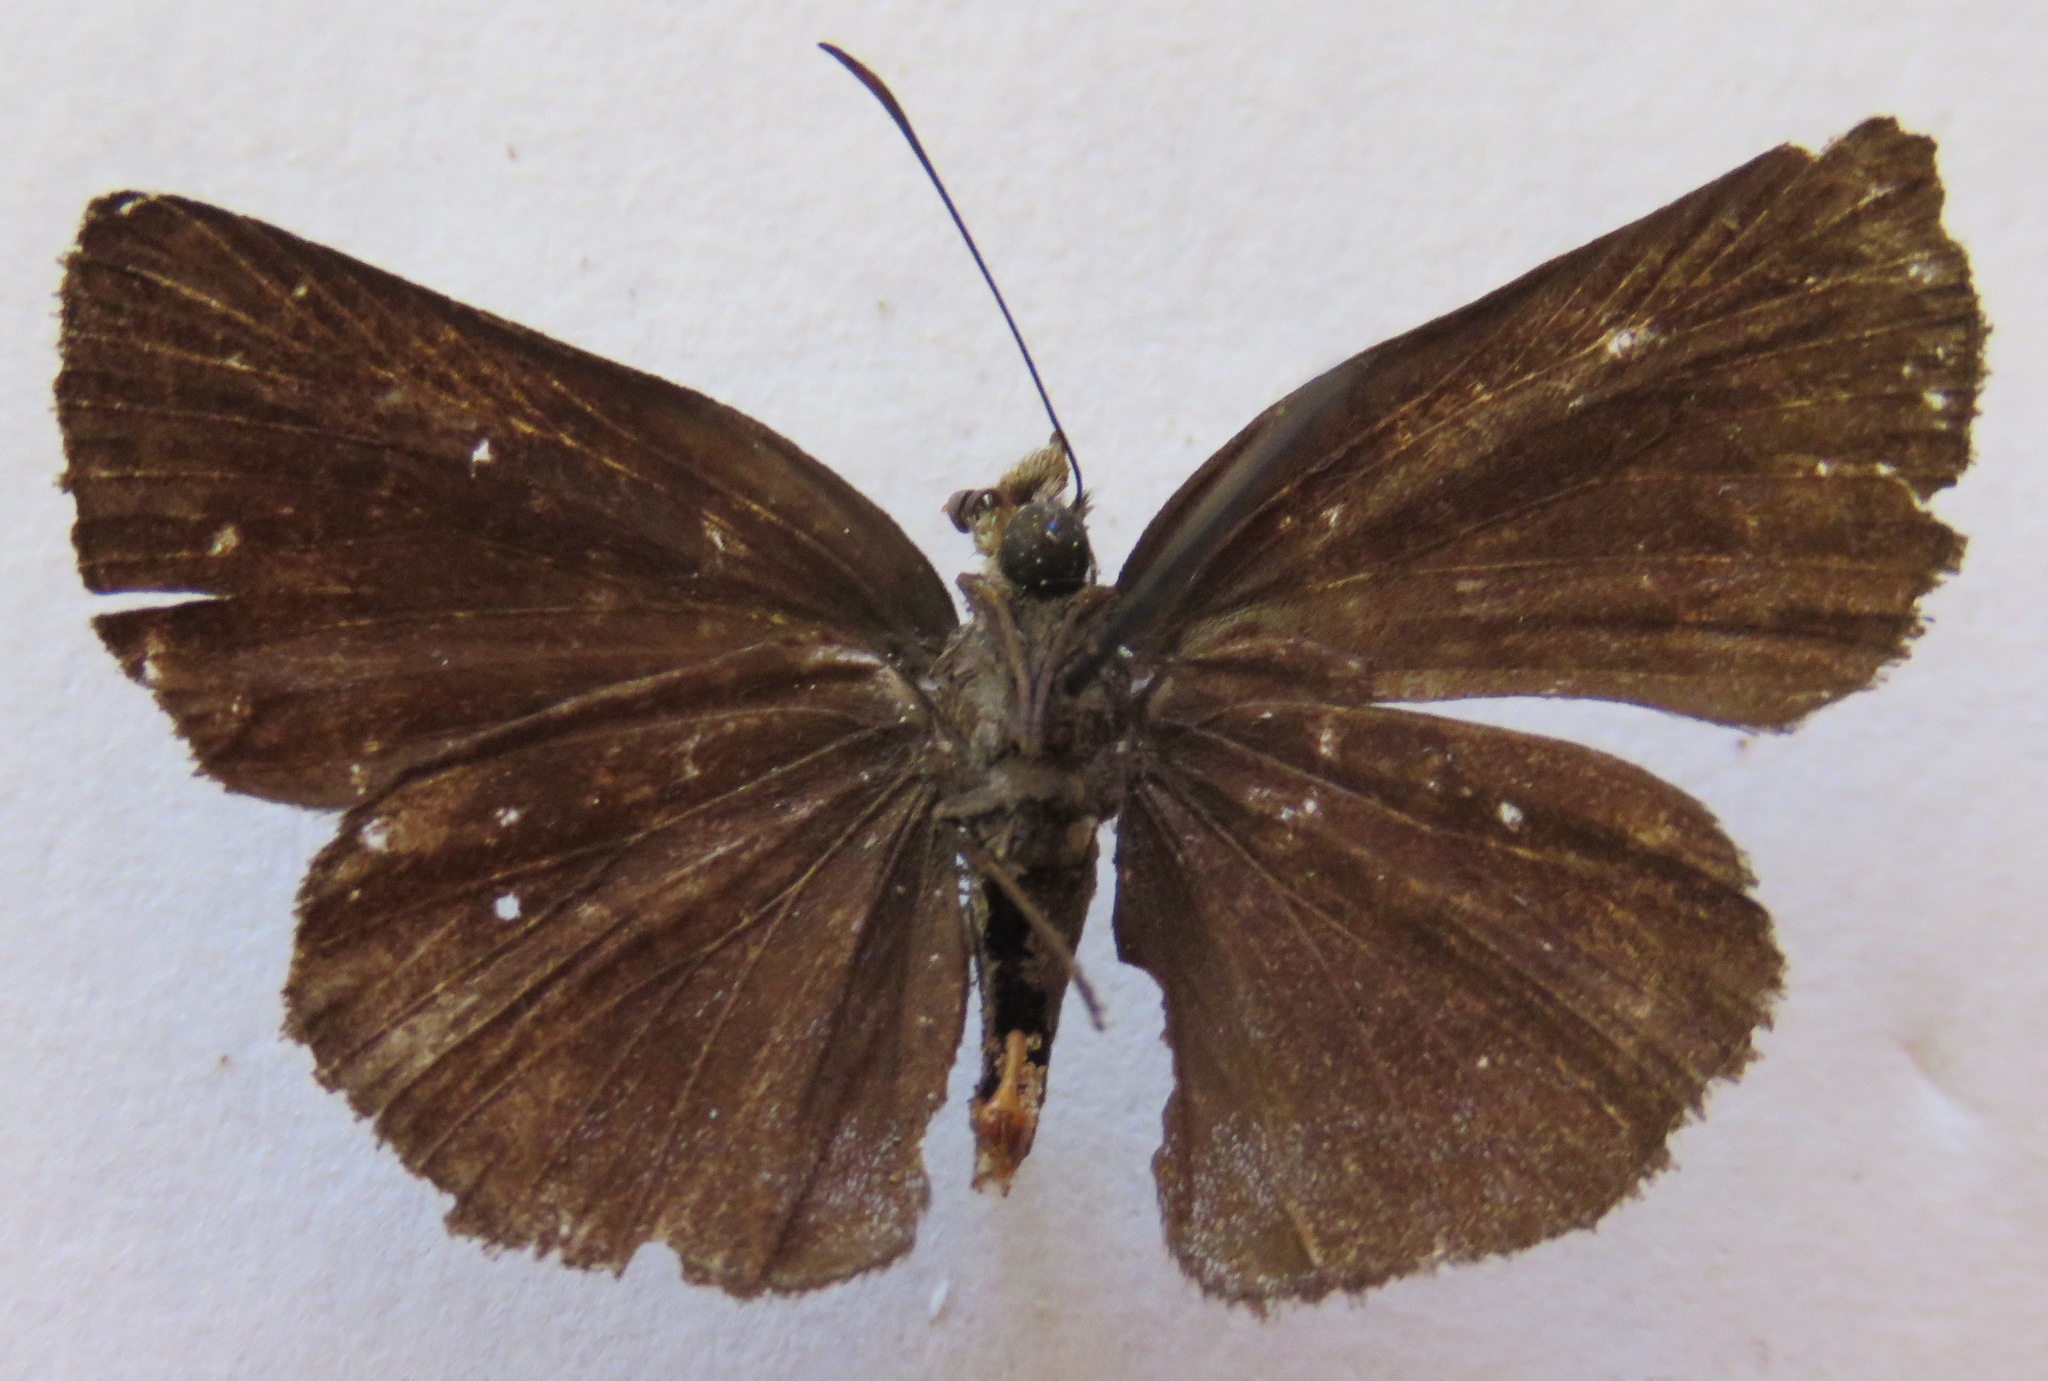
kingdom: Animalia
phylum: Arthropoda
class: Insecta
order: Lepidoptera
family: Hesperiidae
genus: Paches
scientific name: Paches loxus
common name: Glorious blue-skipper
